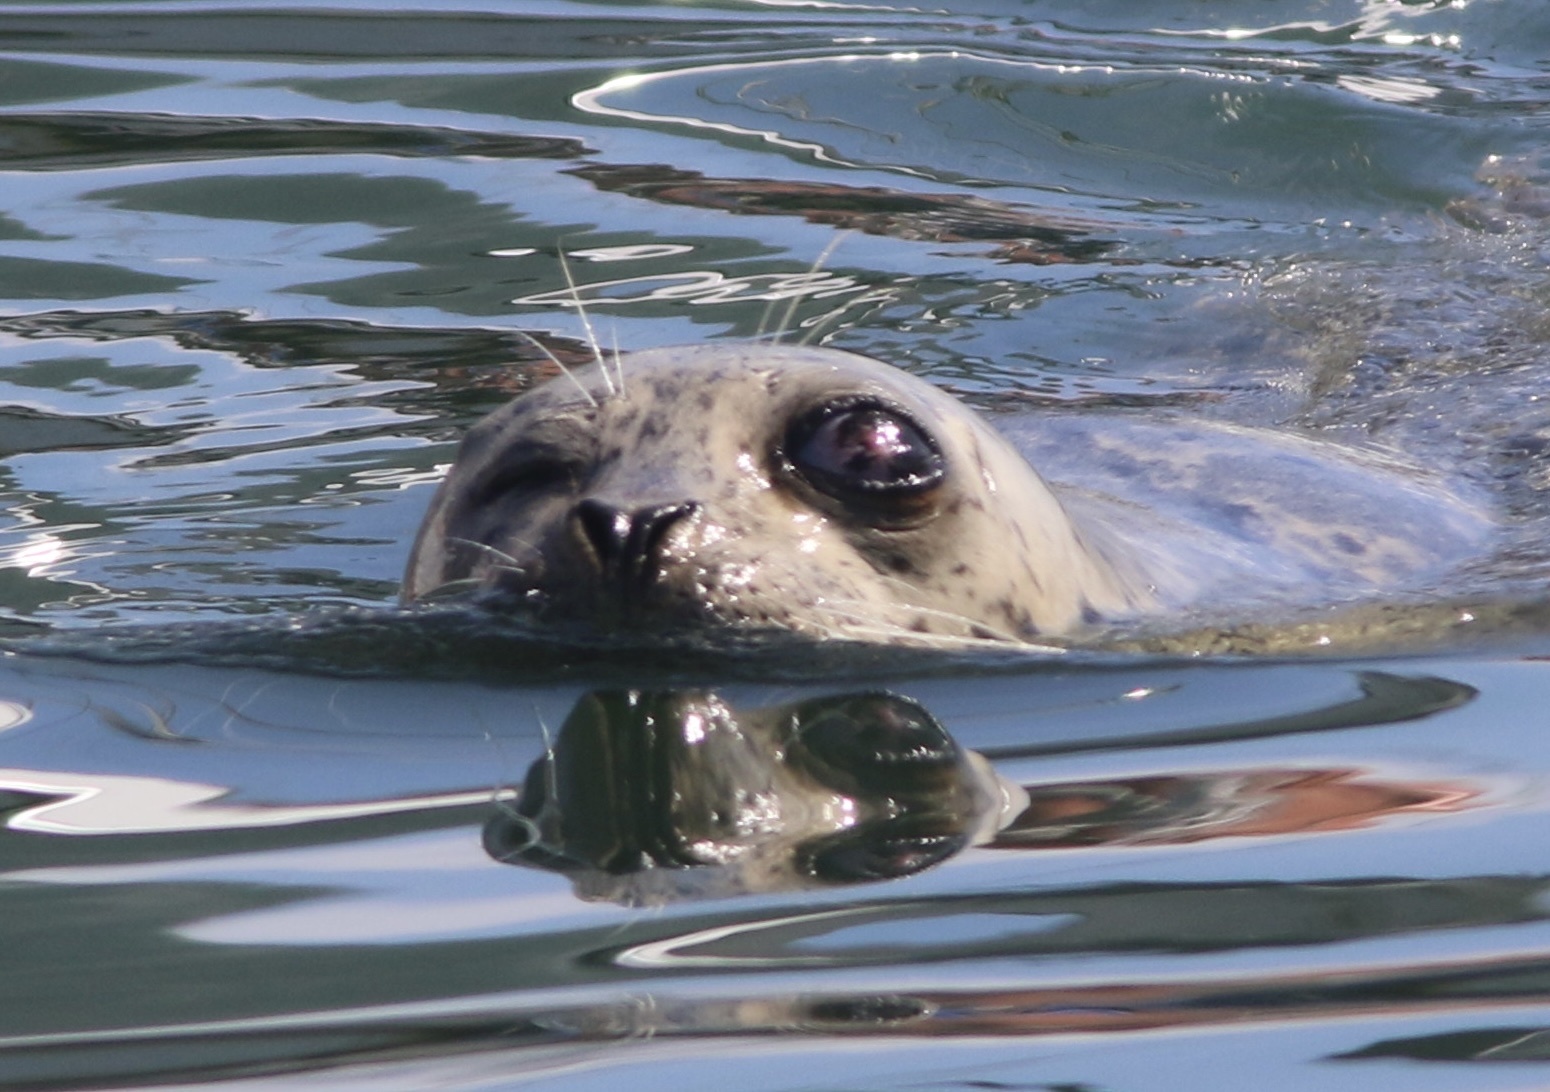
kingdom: Animalia
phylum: Chordata
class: Mammalia
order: Carnivora
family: Phocidae
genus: Phoca
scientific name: Phoca vitulina
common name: Harbor seal
